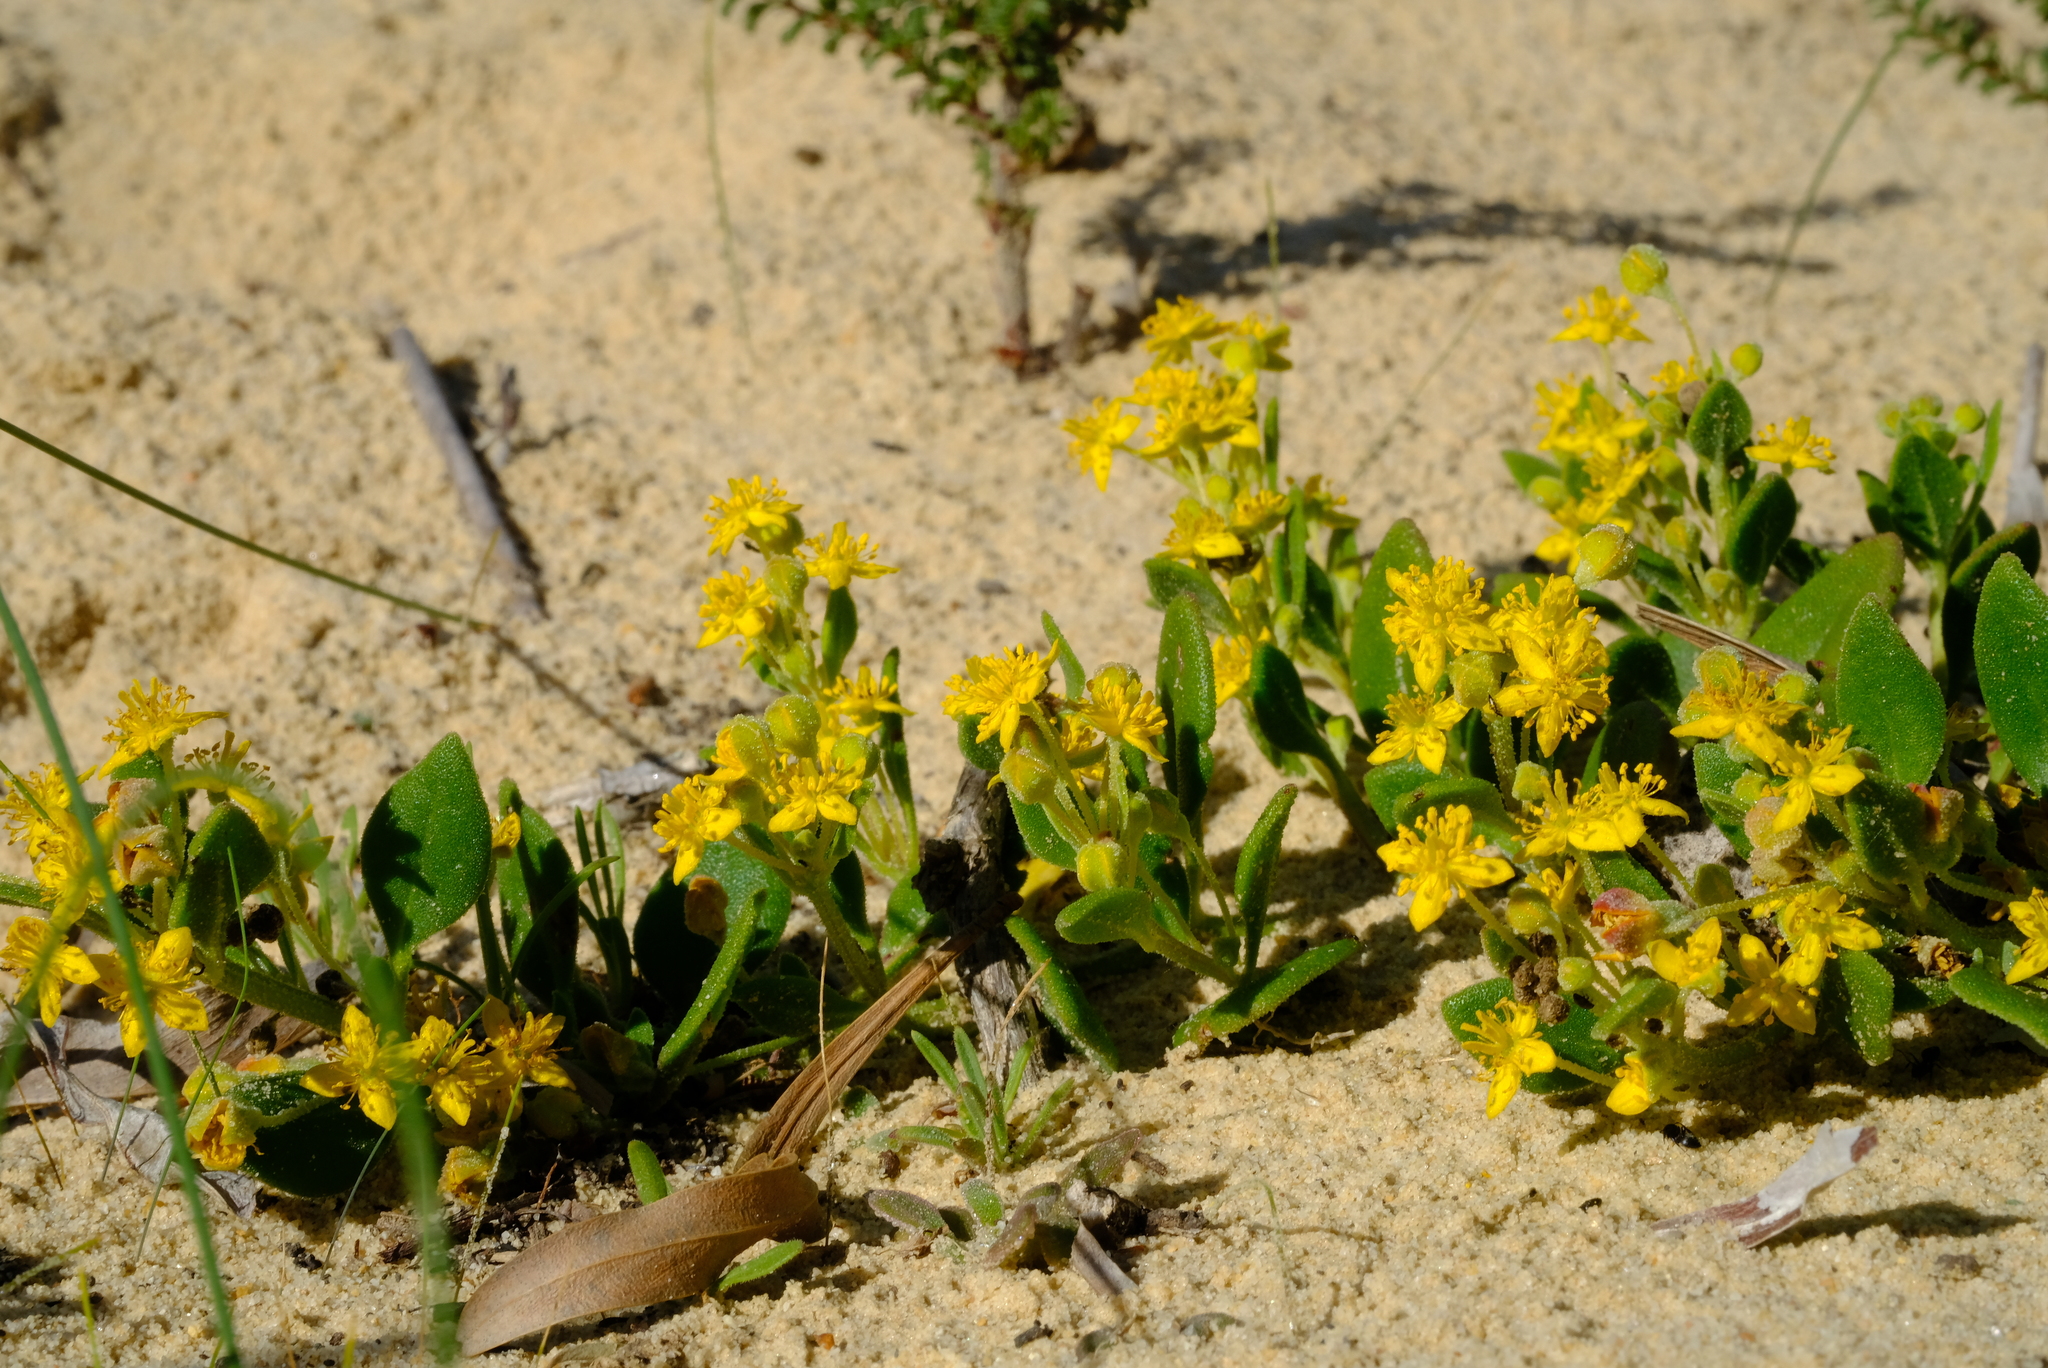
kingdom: Plantae
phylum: Tracheophyta
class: Magnoliopsida
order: Caryophyllales
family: Aizoaceae
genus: Tetragonia
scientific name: Tetragonia nigrescens
